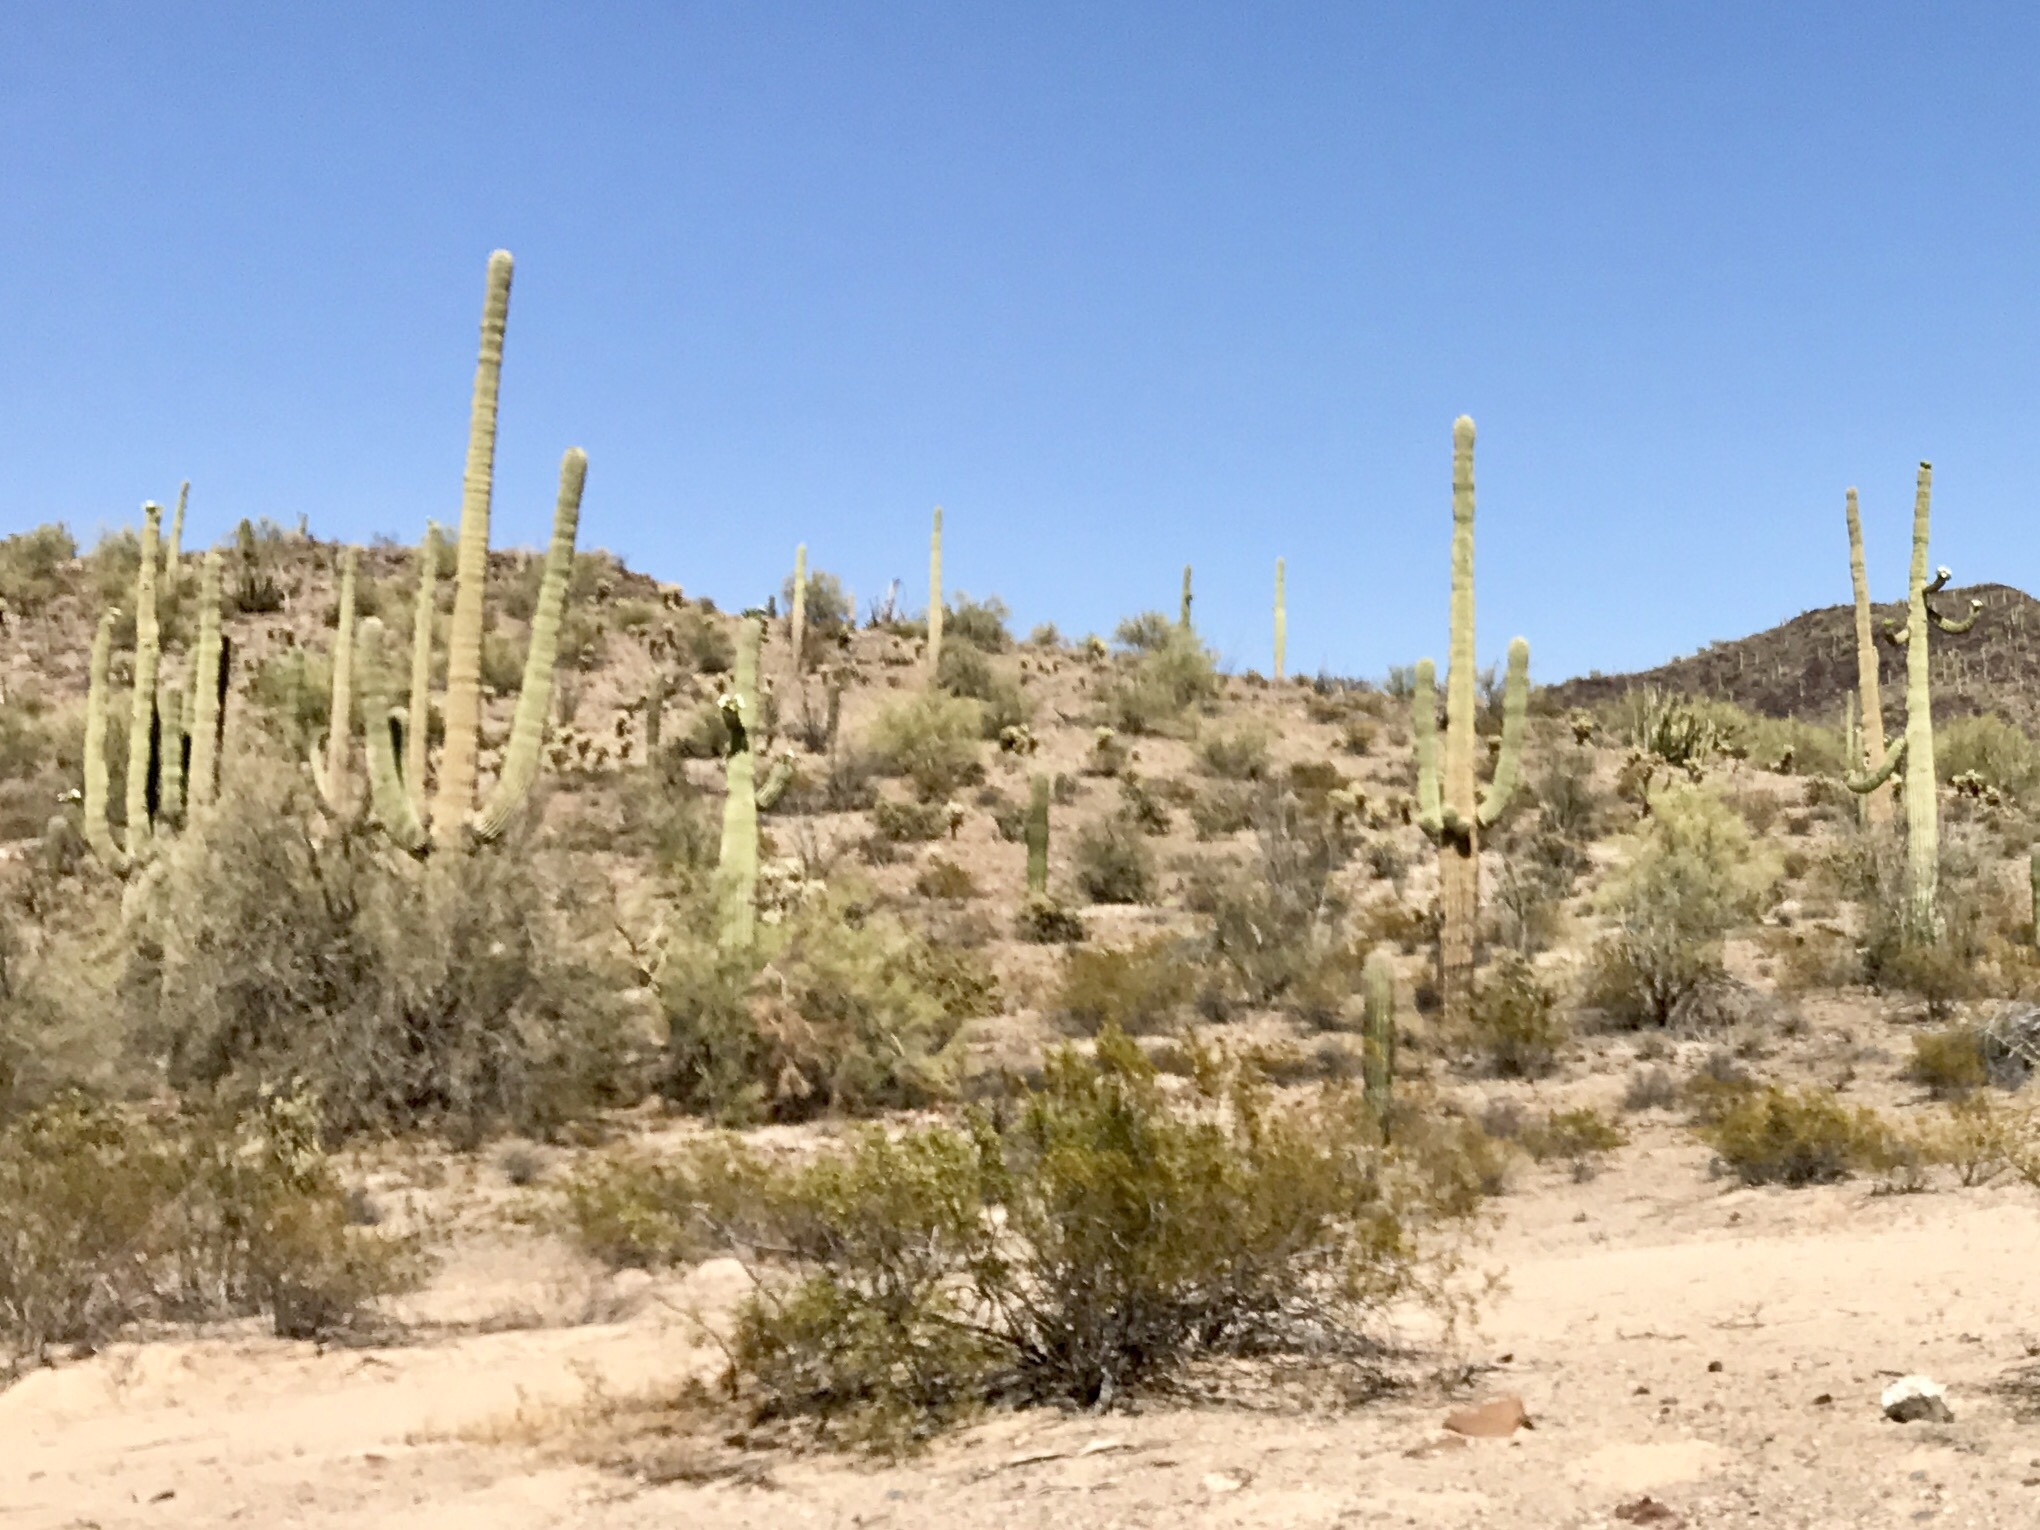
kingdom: Plantae
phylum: Tracheophyta
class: Magnoliopsida
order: Zygophyllales
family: Zygophyllaceae
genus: Larrea
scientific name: Larrea tridentata
